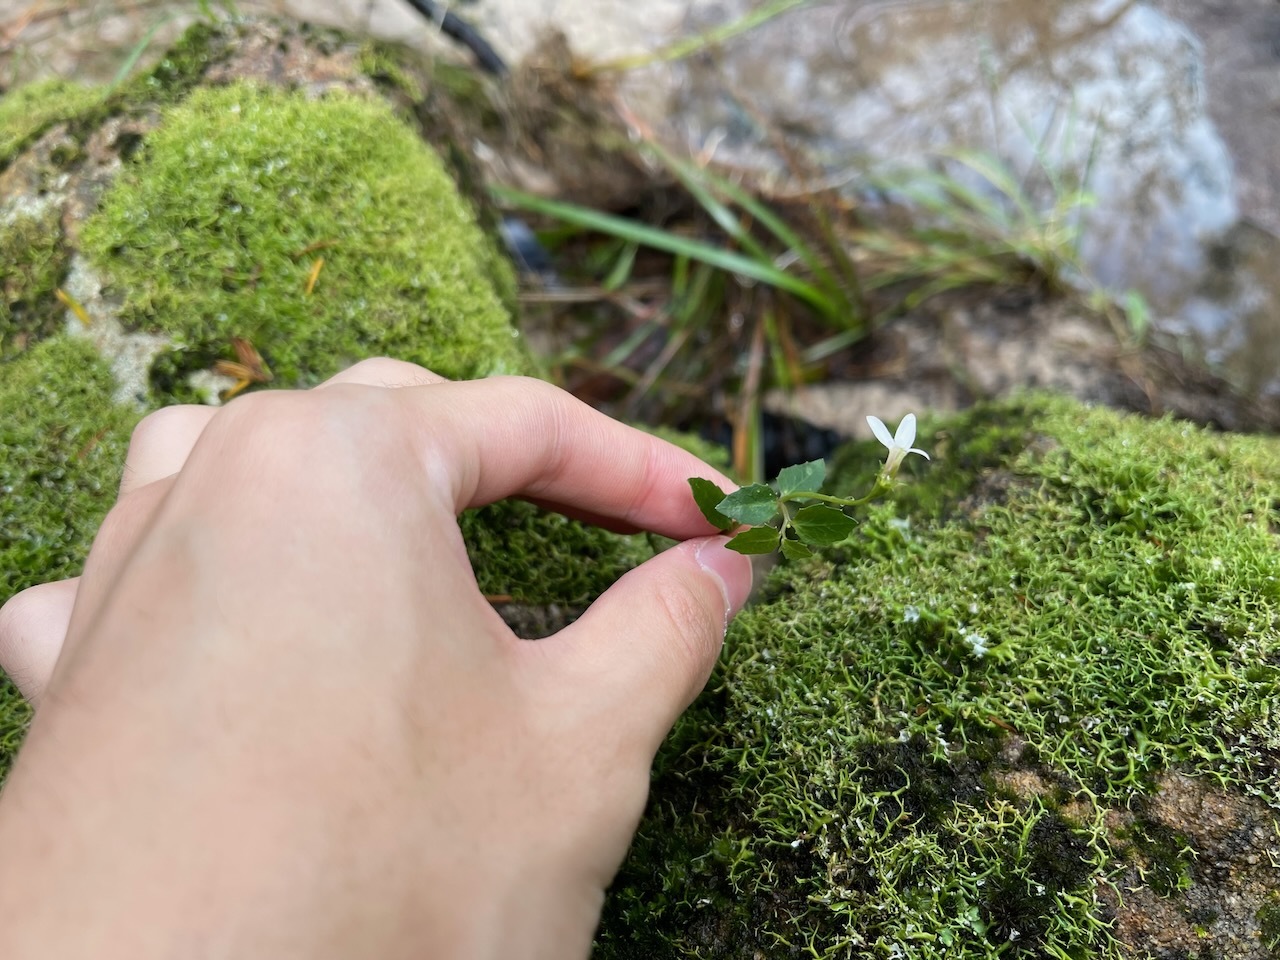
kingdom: Plantae
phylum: Tracheophyta
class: Magnoliopsida
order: Asterales
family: Campanulaceae
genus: Lobelia
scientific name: Lobelia purpurascens
